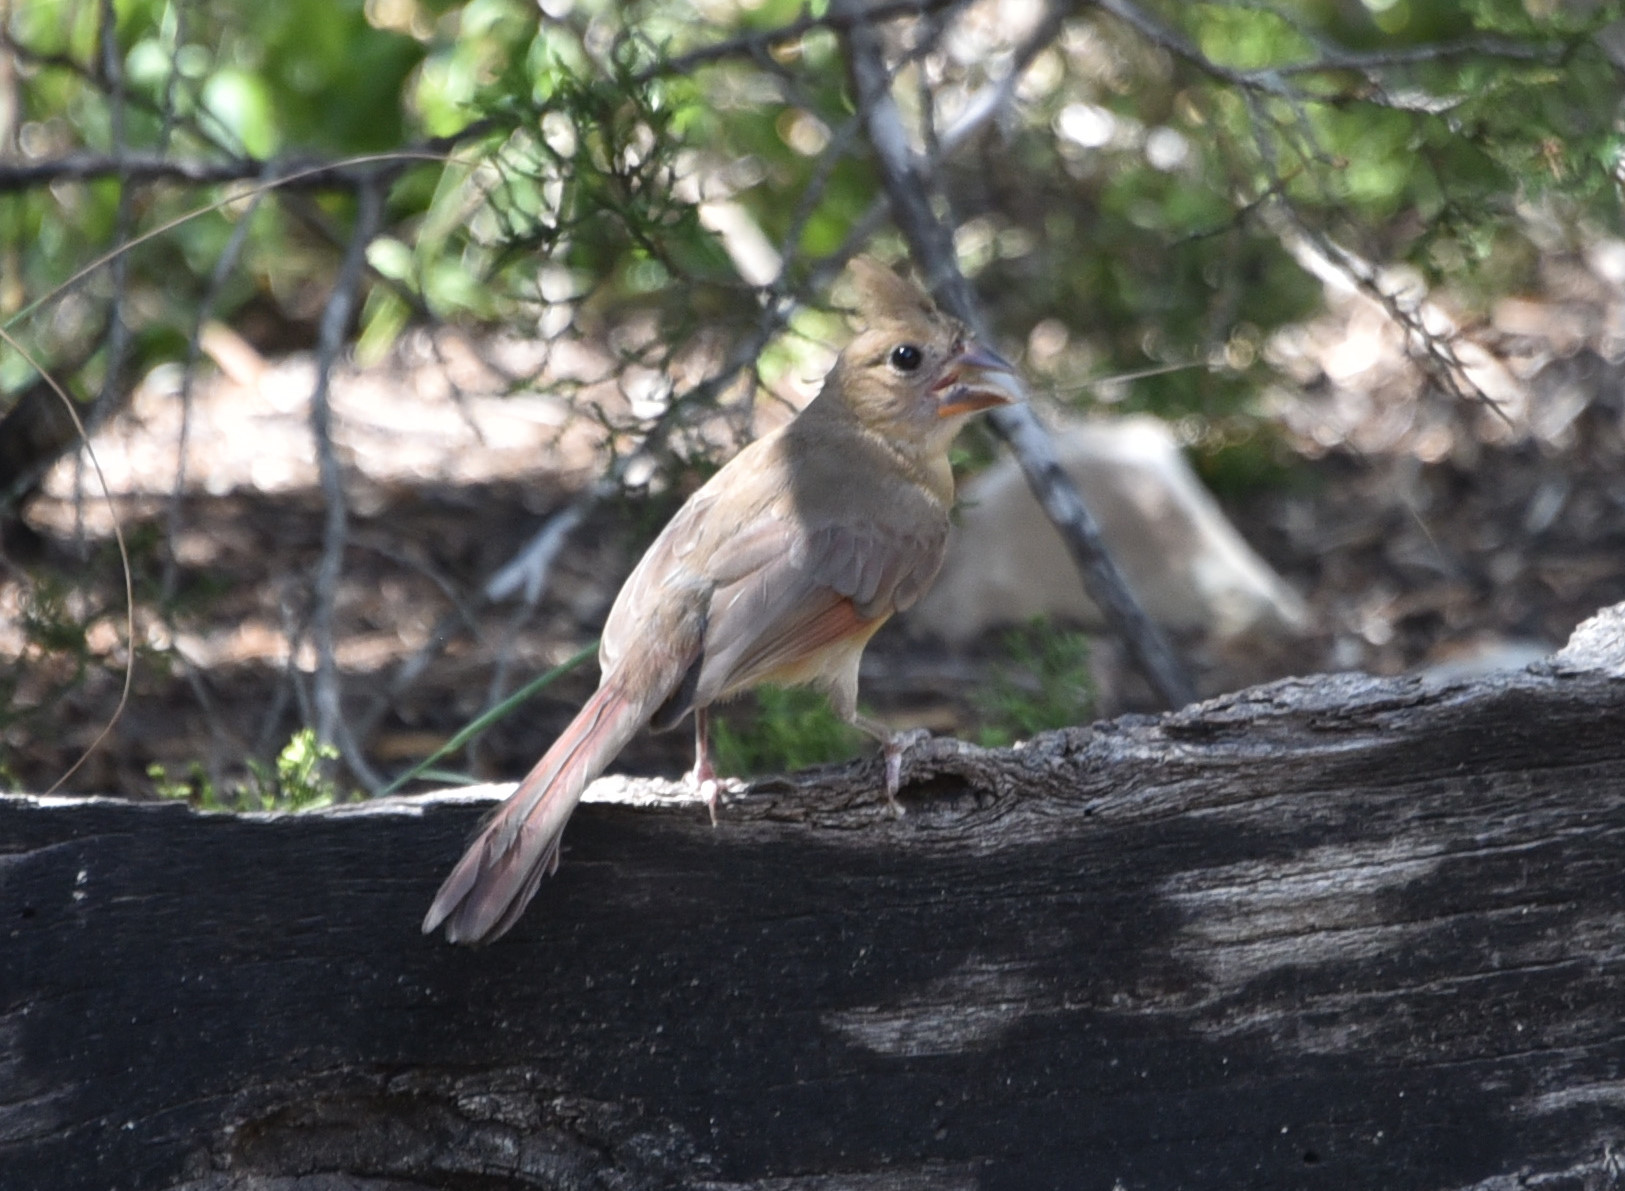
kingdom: Animalia
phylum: Chordata
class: Aves
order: Passeriformes
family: Cardinalidae
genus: Cardinalis
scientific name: Cardinalis cardinalis
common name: Northern cardinal
